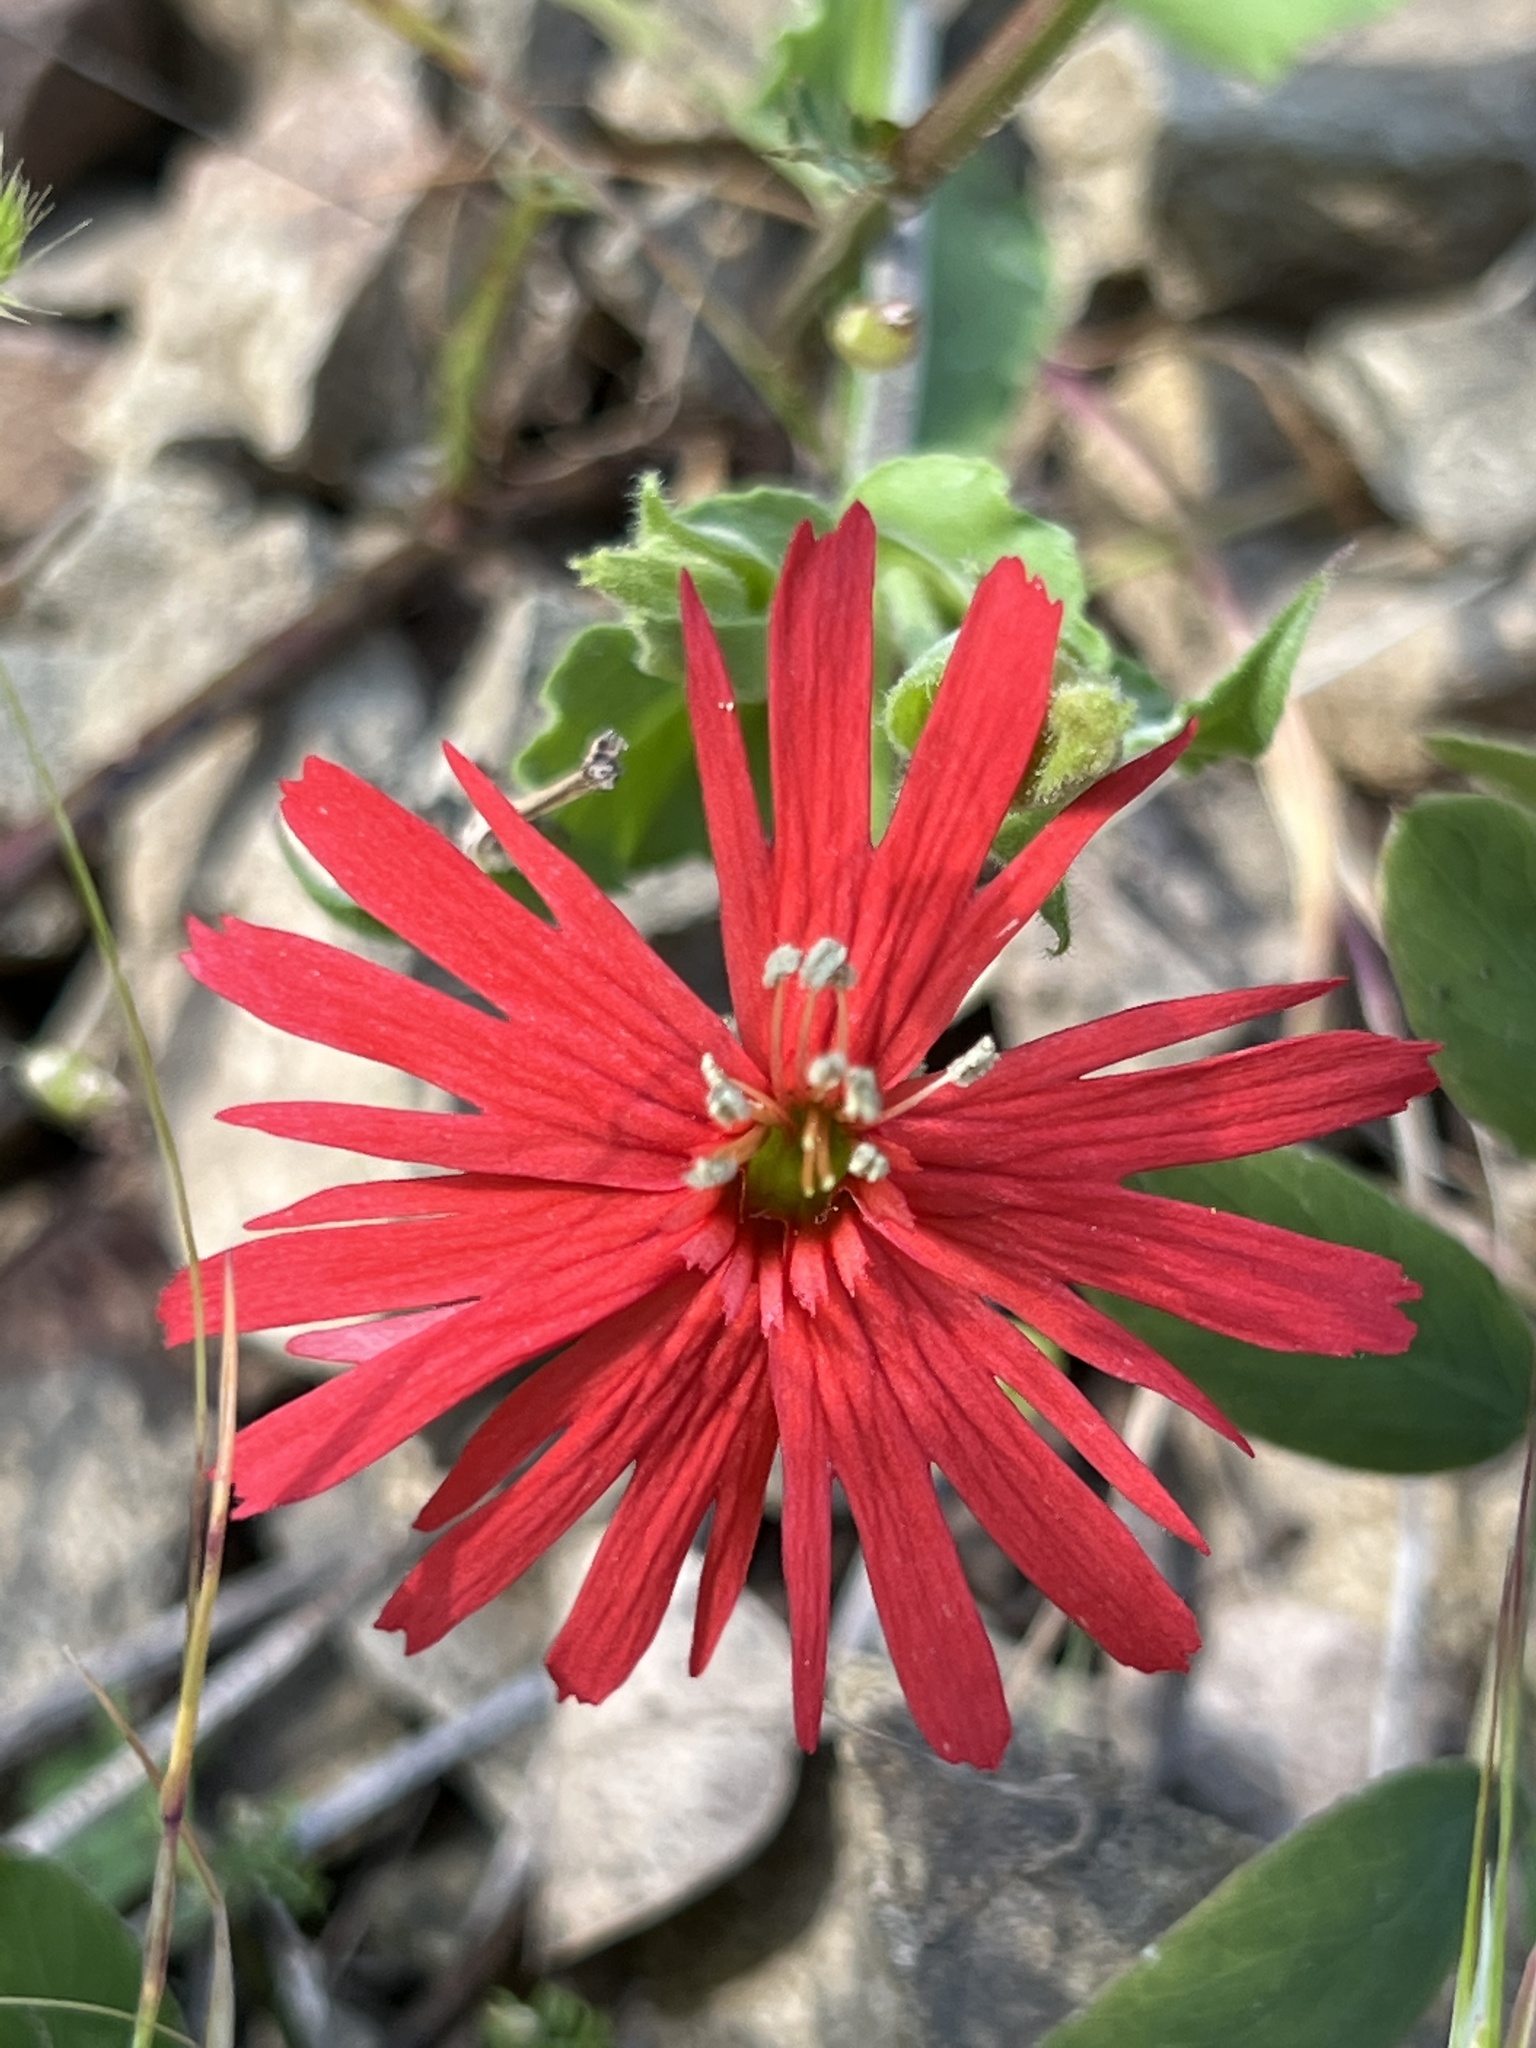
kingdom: Plantae
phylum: Tracheophyta
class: Magnoliopsida
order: Caryophyllales
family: Caryophyllaceae
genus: Silene
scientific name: Silene laciniata
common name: Indian-pink
